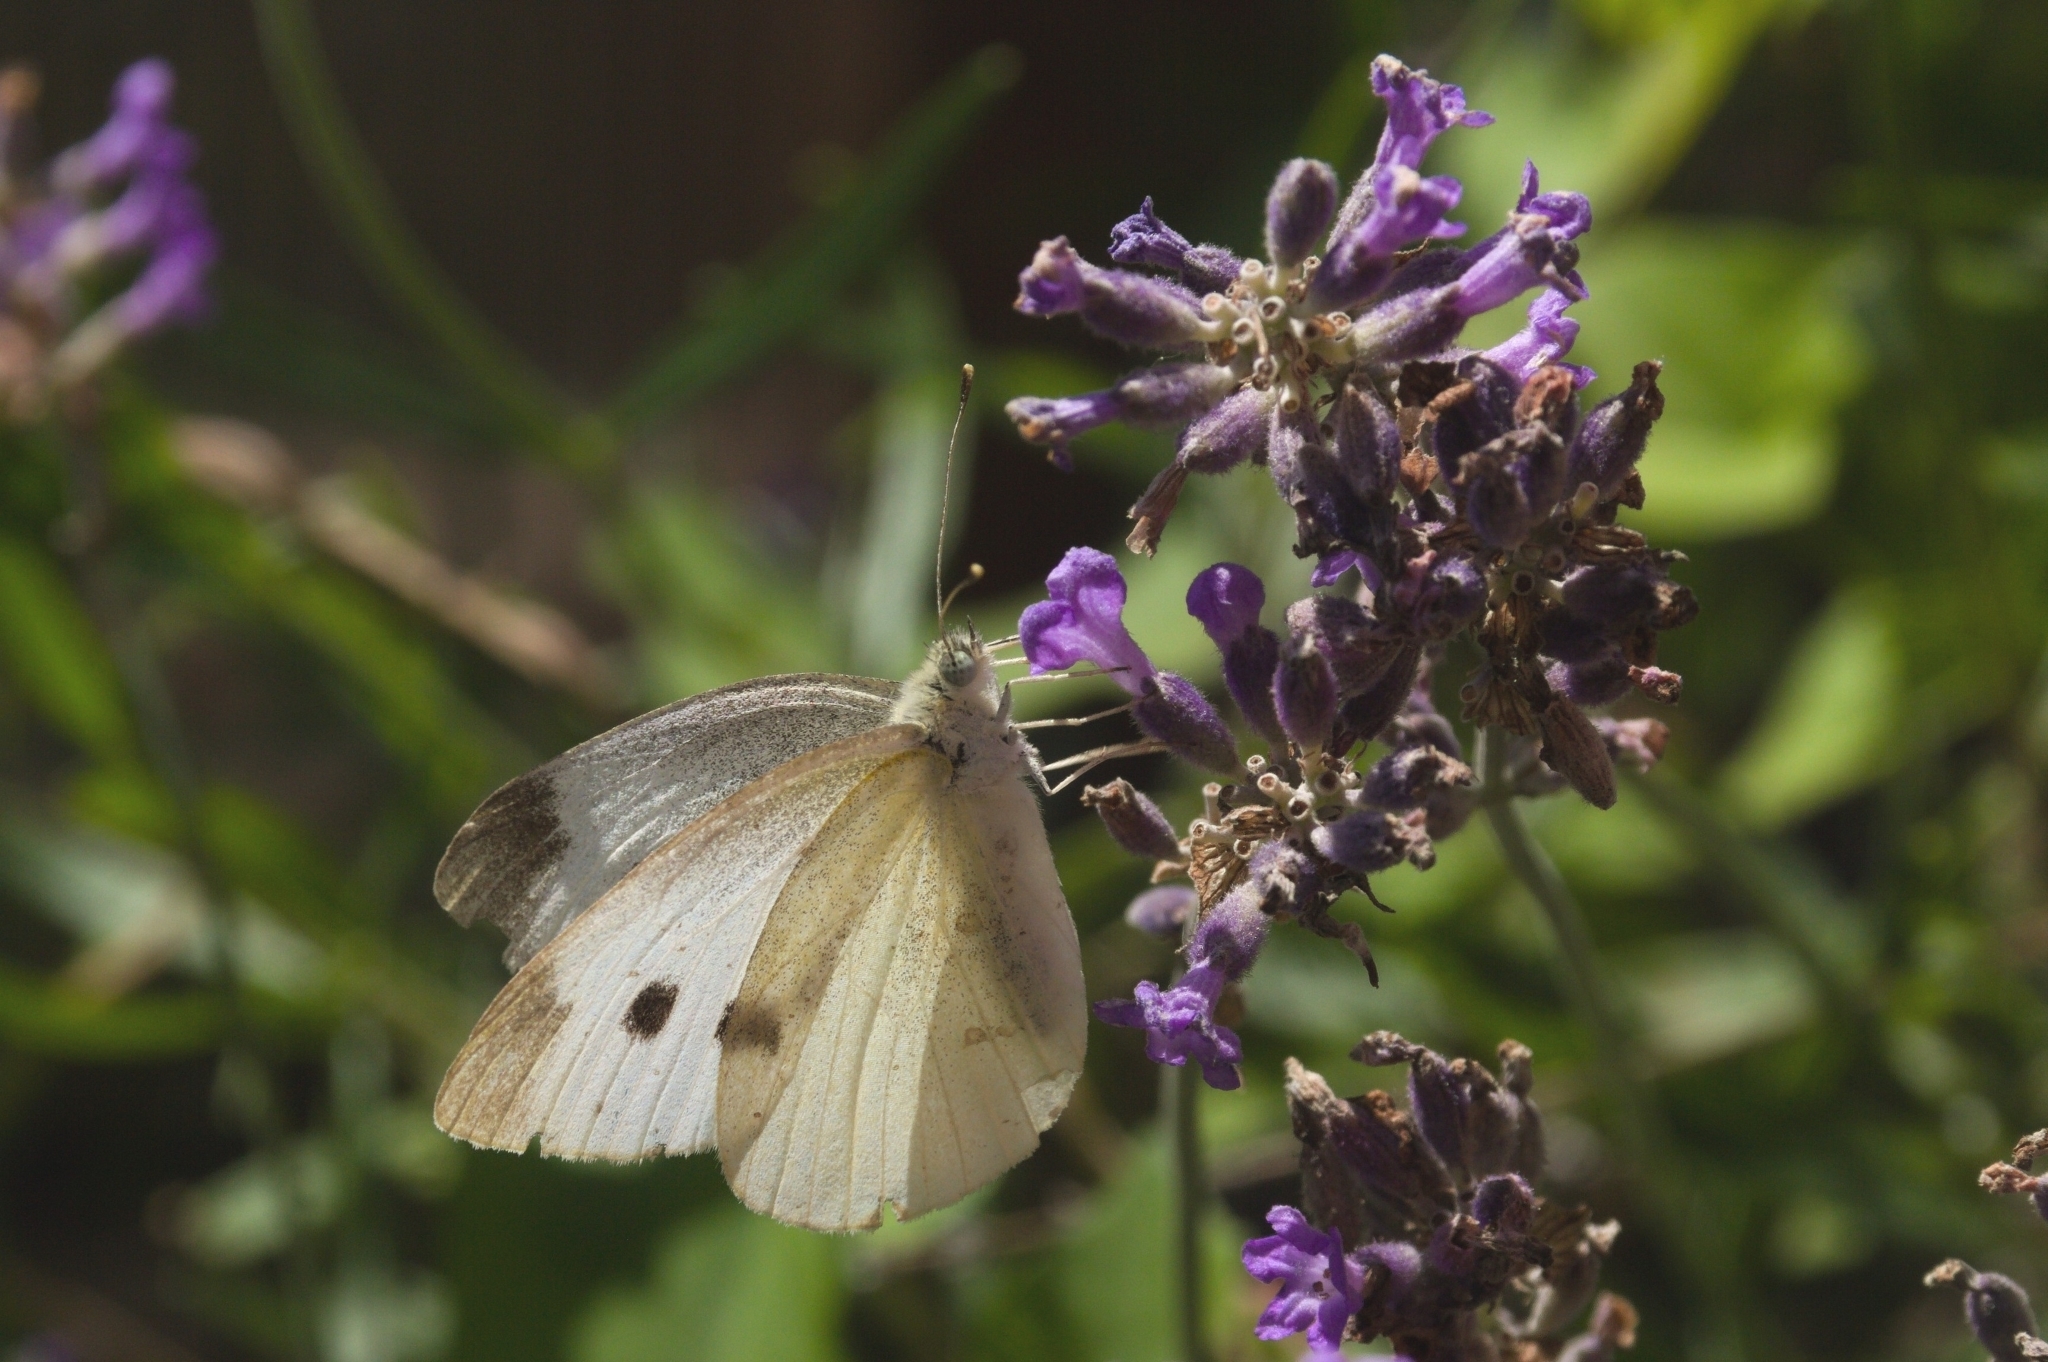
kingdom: Animalia
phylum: Arthropoda
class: Insecta
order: Lepidoptera
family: Pieridae
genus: Pieris
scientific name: Pieris rapae
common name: Small white
